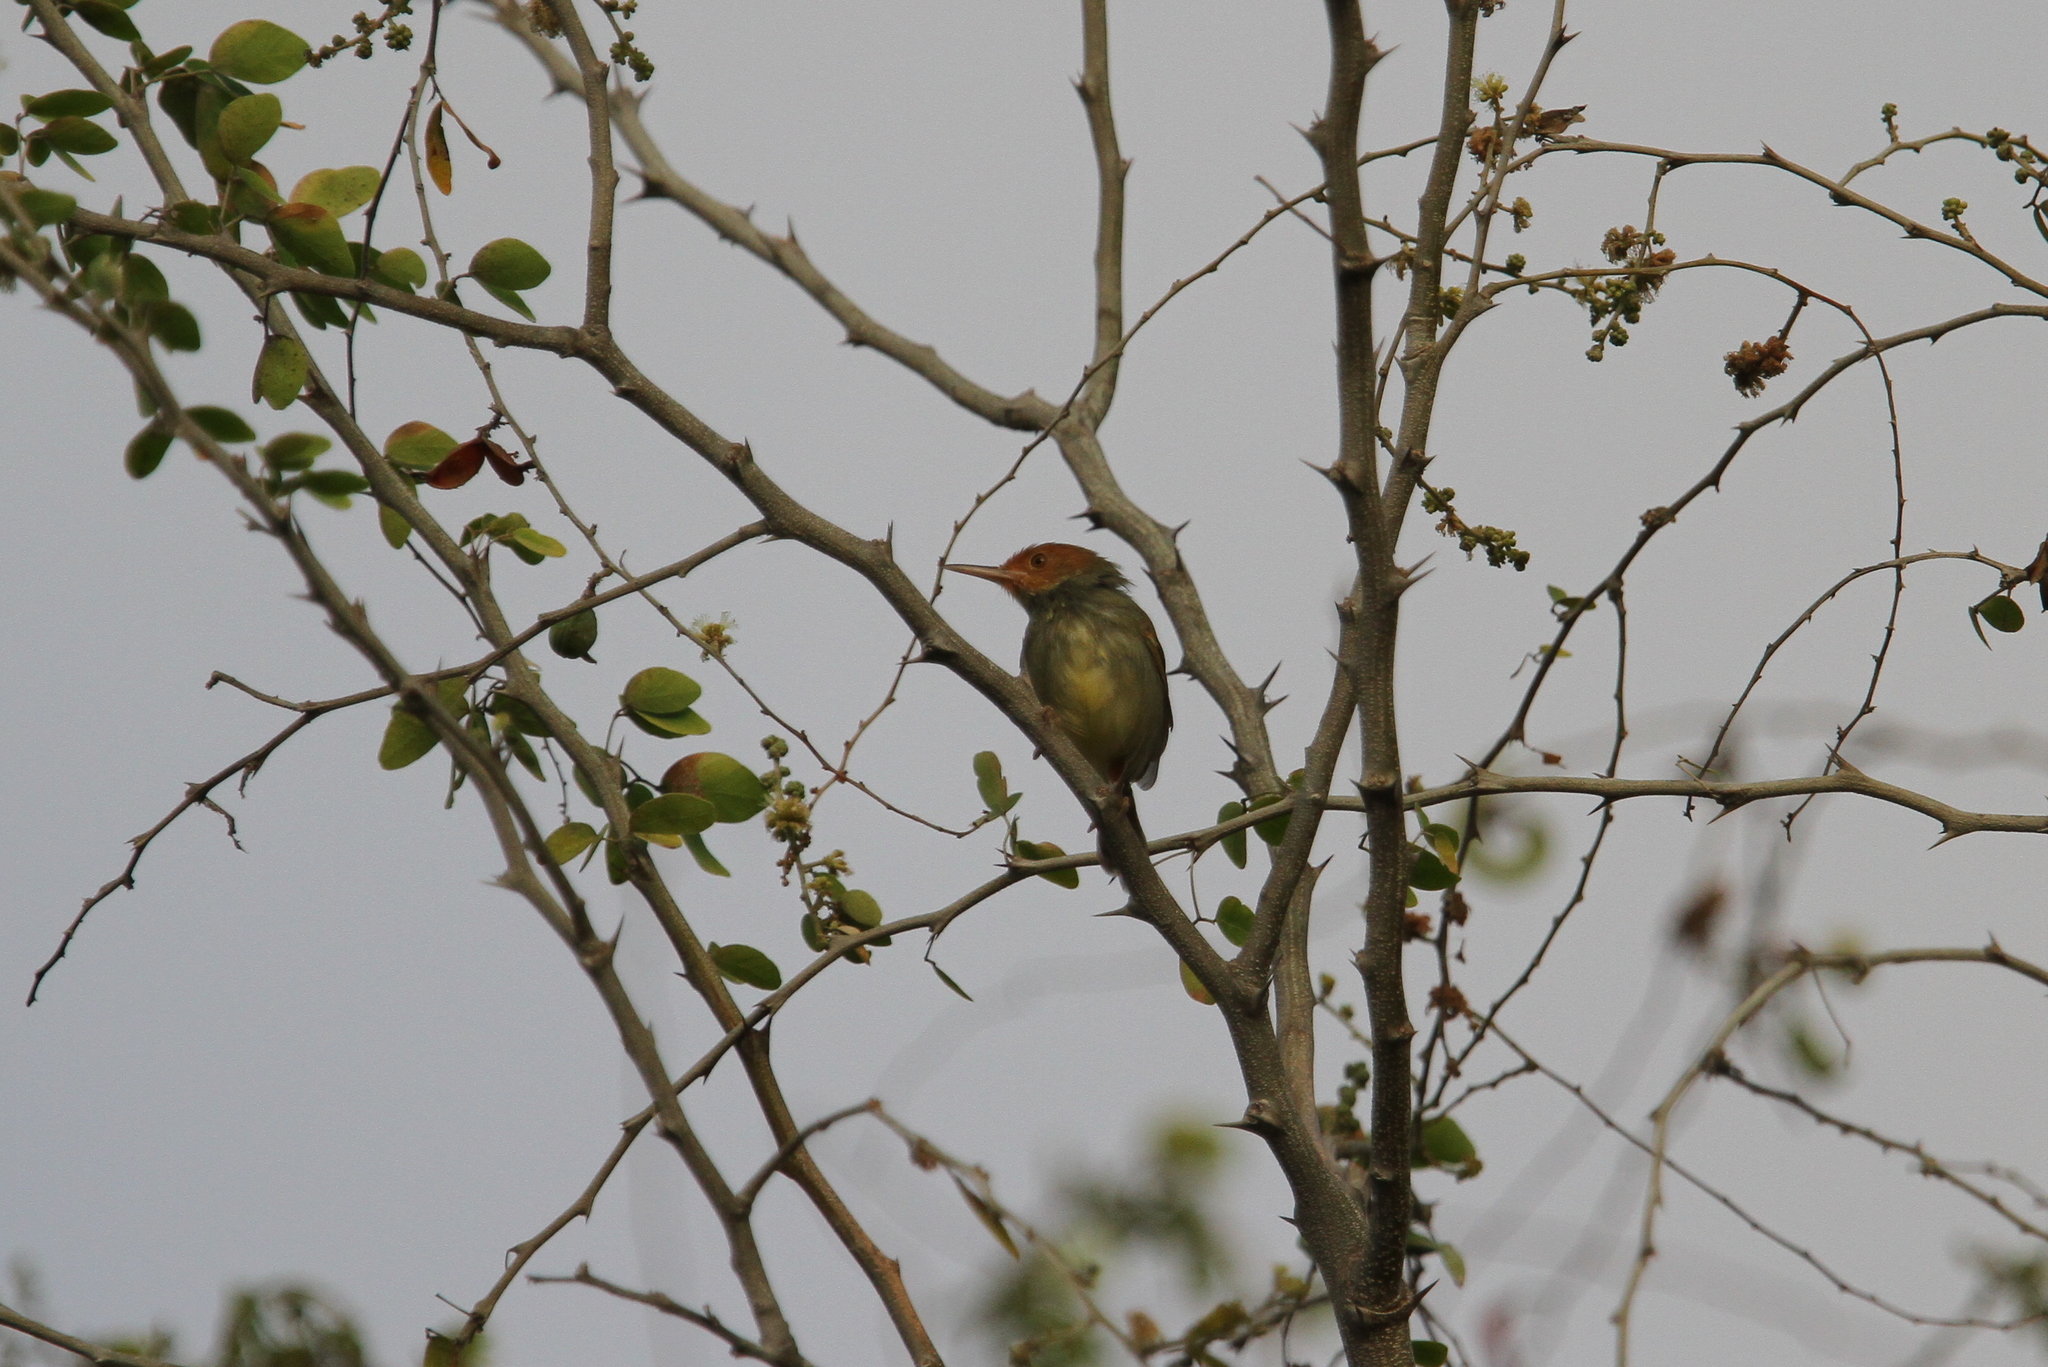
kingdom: Animalia
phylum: Chordata
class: Aves
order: Passeriformes
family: Cisticolidae
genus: Orthotomus
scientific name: Orthotomus sepium
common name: Olive-backed tailorbird
